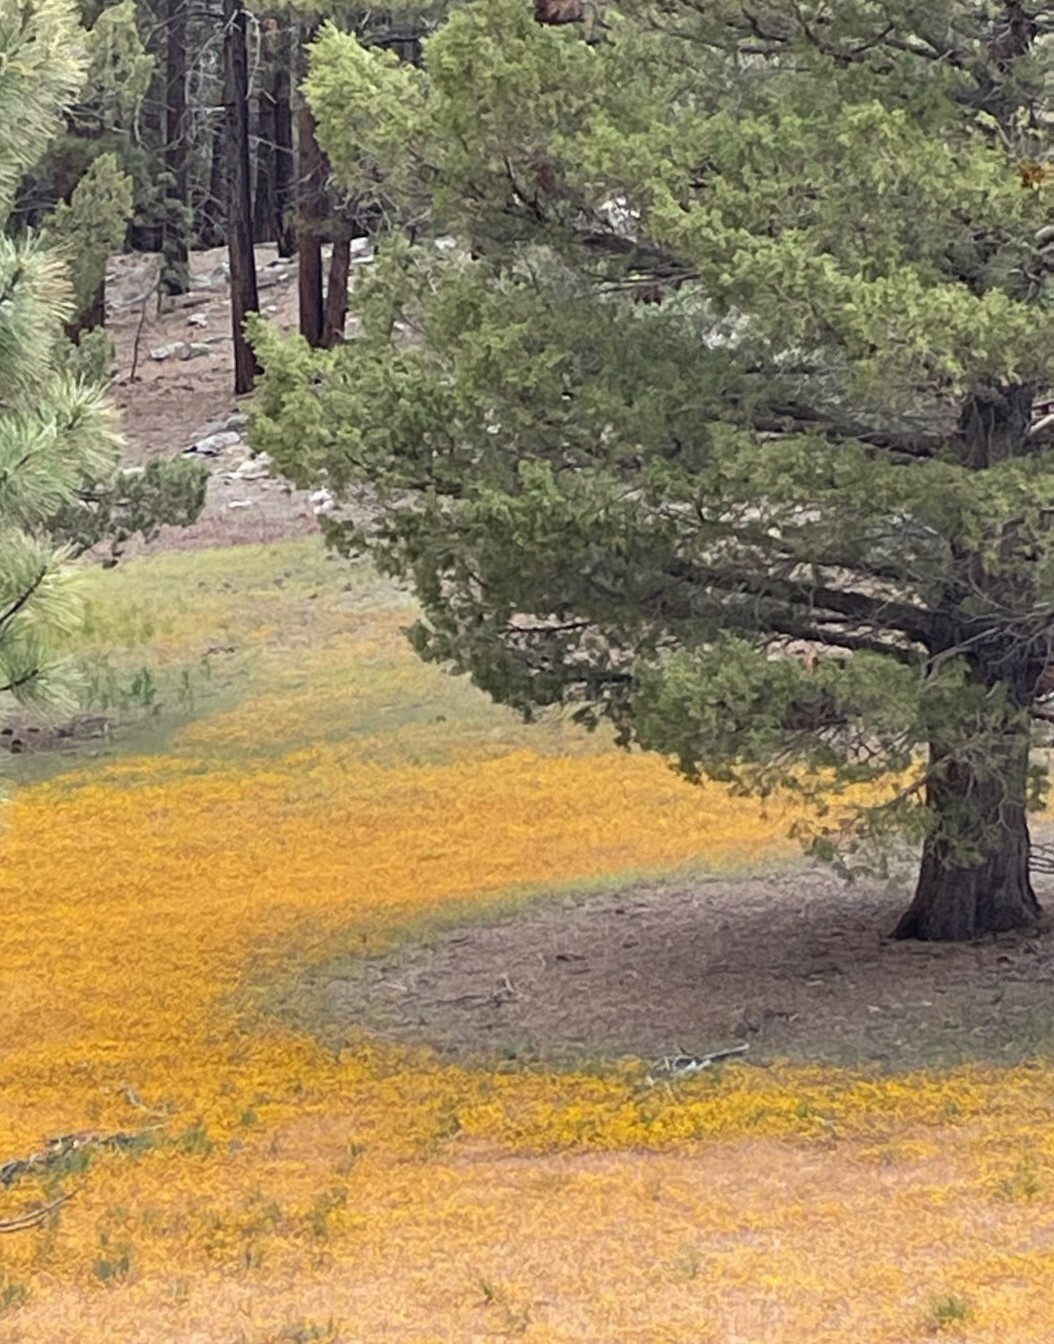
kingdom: Plantae
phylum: Tracheophyta
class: Magnoliopsida
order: Lamiales
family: Phrymaceae
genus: Erythranthe
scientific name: Erythranthe barbata
